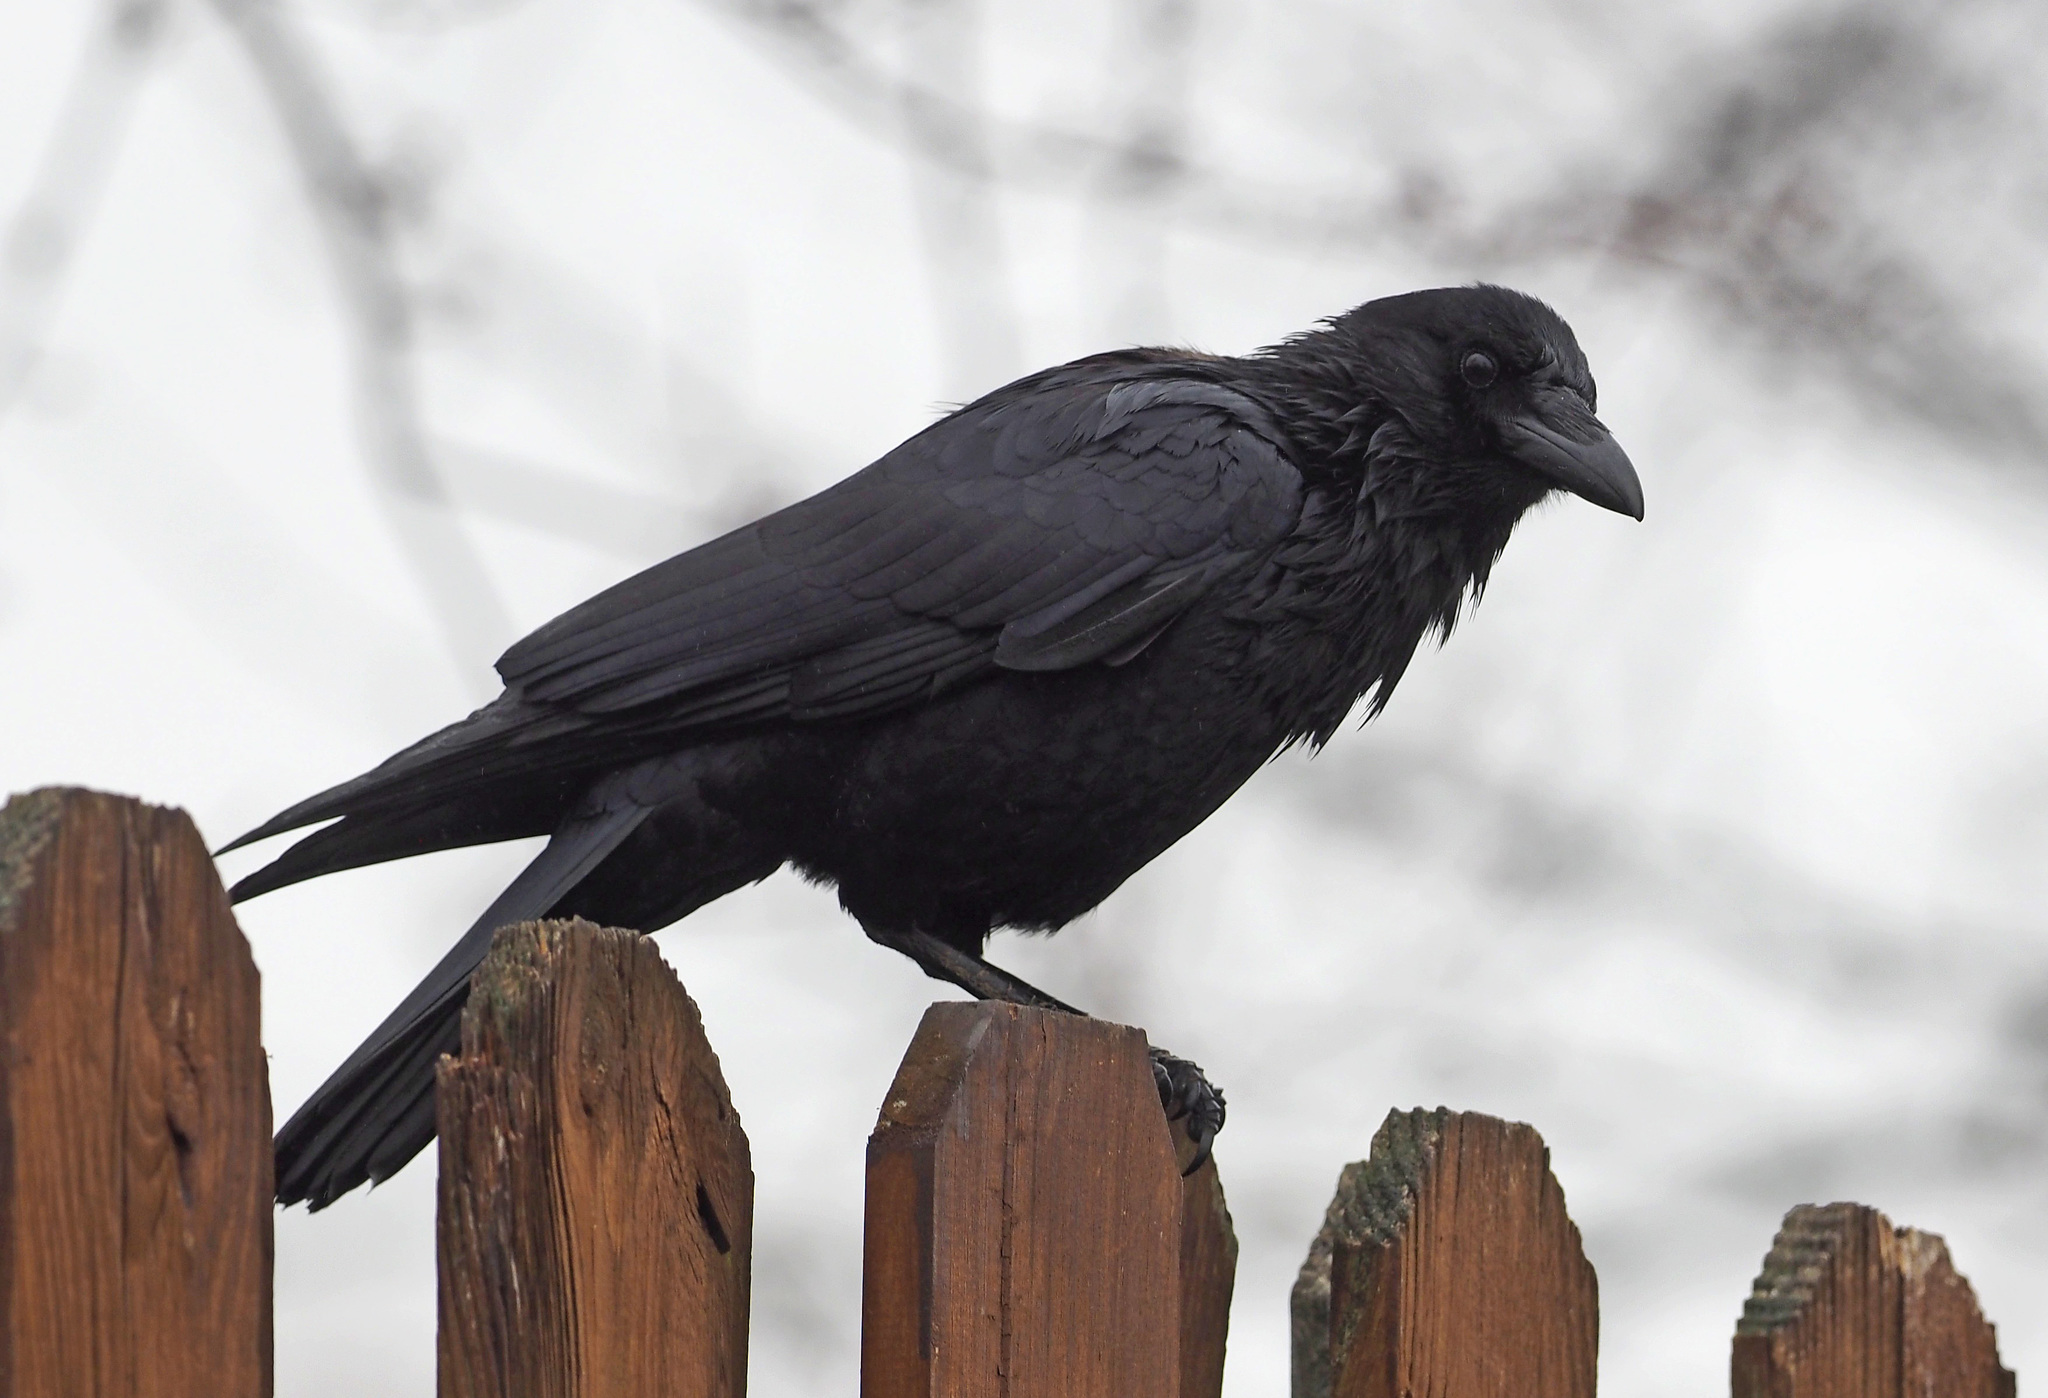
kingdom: Animalia
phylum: Chordata
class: Aves
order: Passeriformes
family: Corvidae
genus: Corvus
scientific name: Corvus brachyrhynchos
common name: American crow
